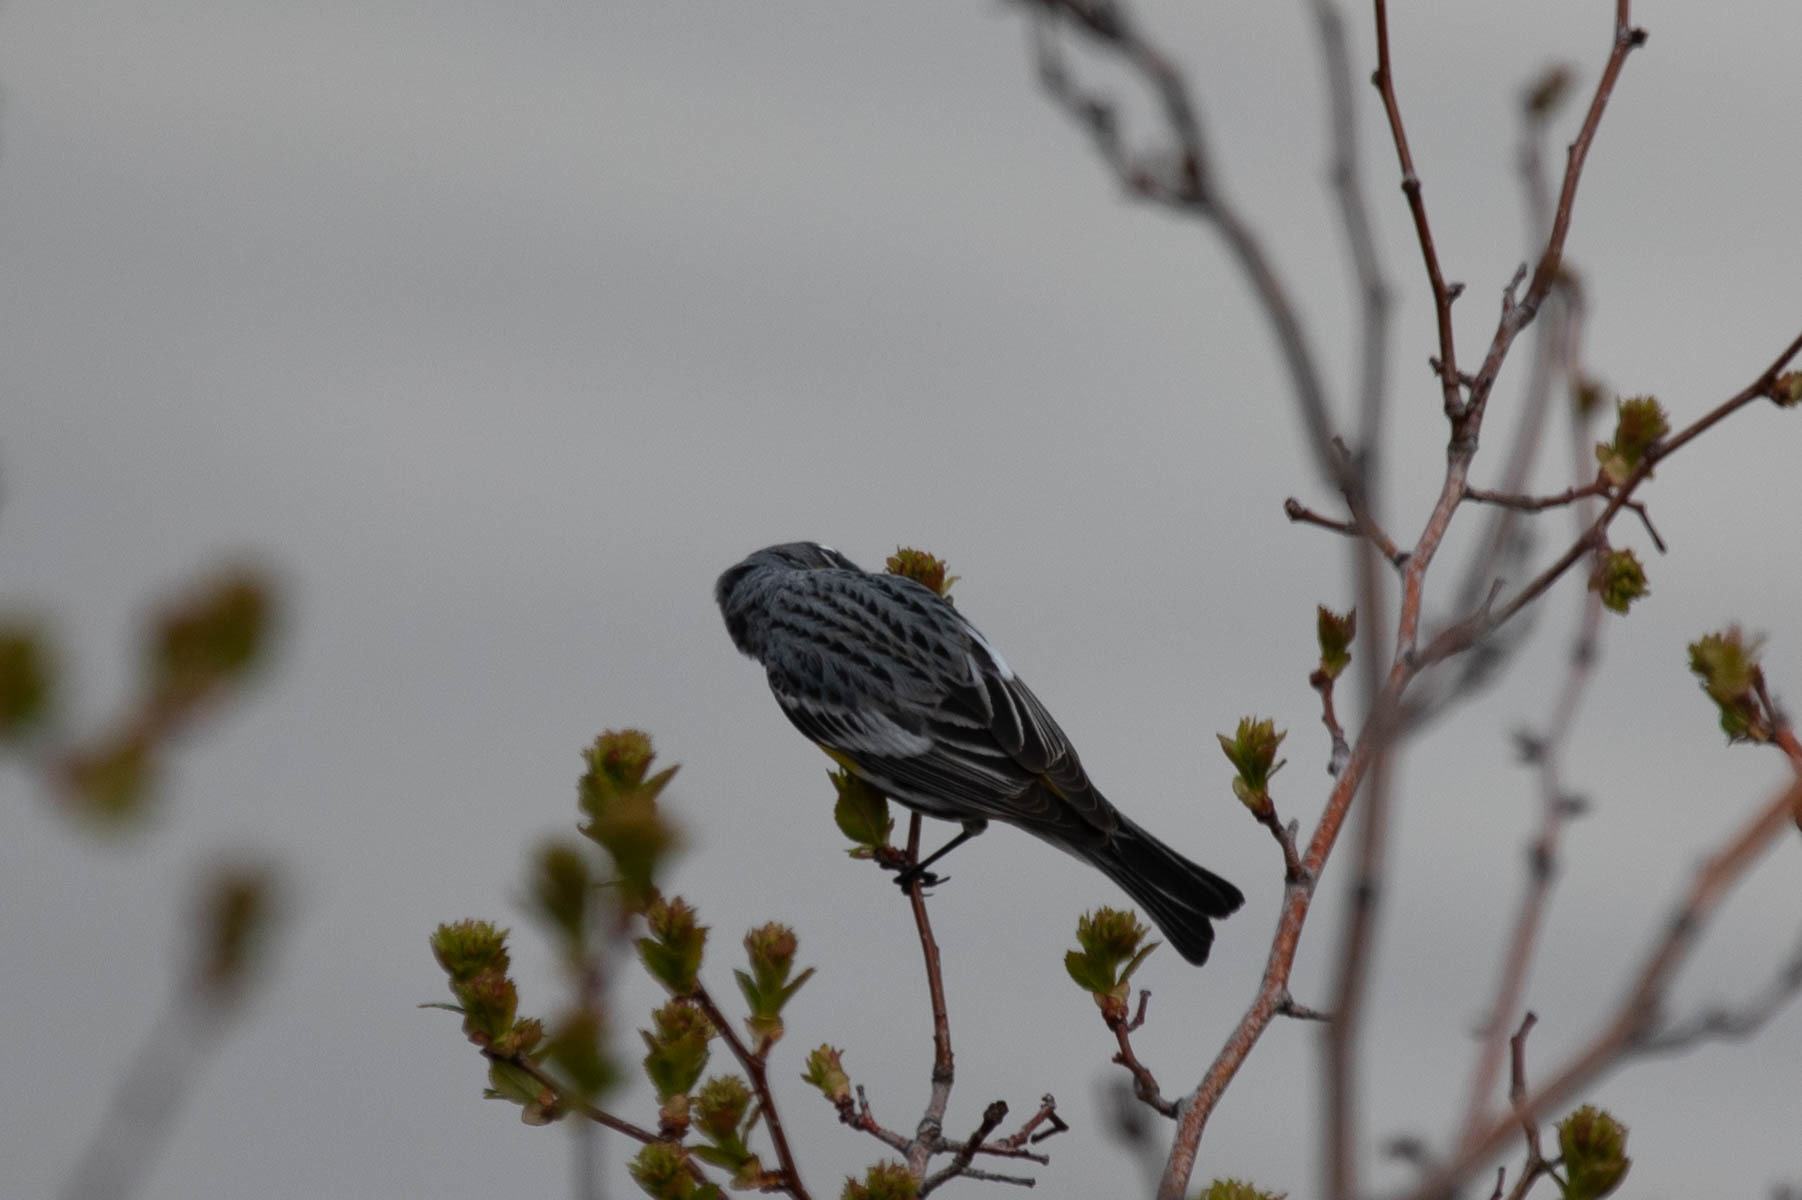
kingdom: Animalia
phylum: Chordata
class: Aves
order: Passeriformes
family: Parulidae
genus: Setophaga
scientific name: Setophaga auduboni
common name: Audubon's warbler
